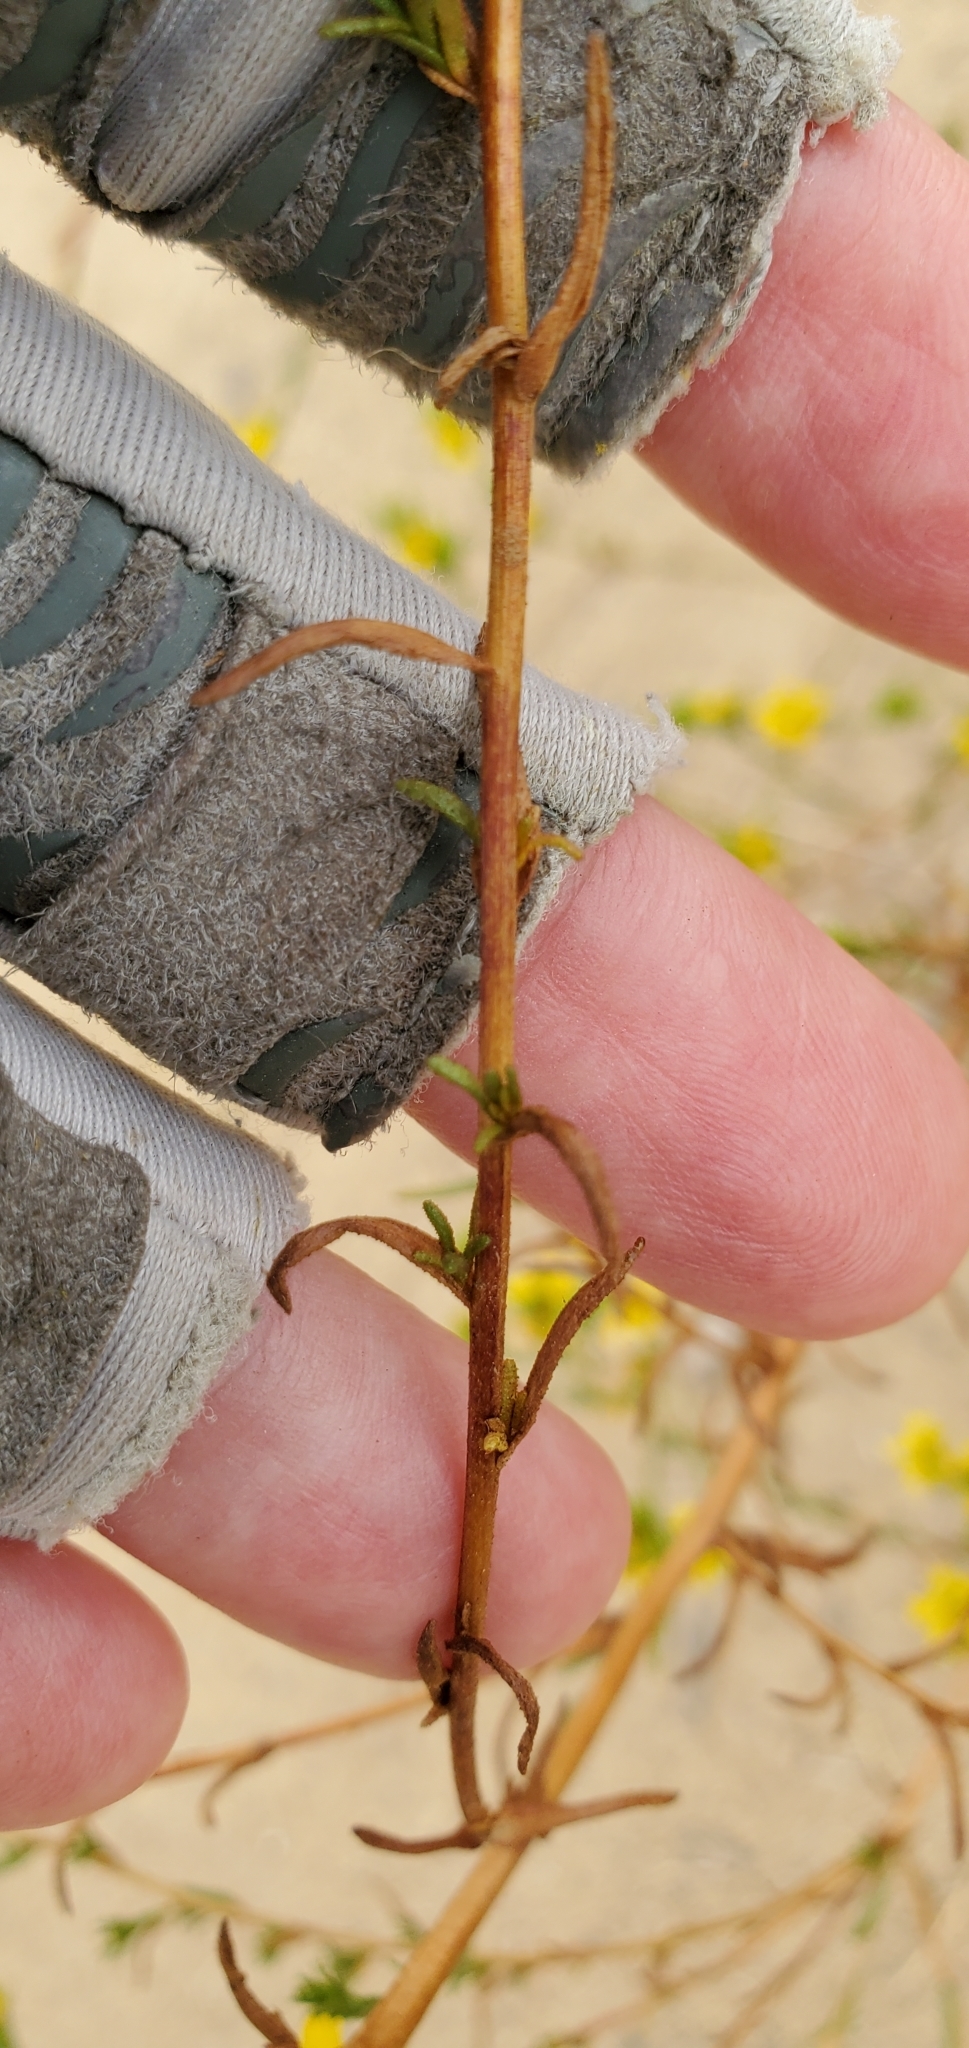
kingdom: Plantae
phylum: Tracheophyta
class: Magnoliopsida
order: Asterales
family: Asteraceae
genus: Deinandra
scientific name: Deinandra fasciculata
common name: Clustered tarweed
